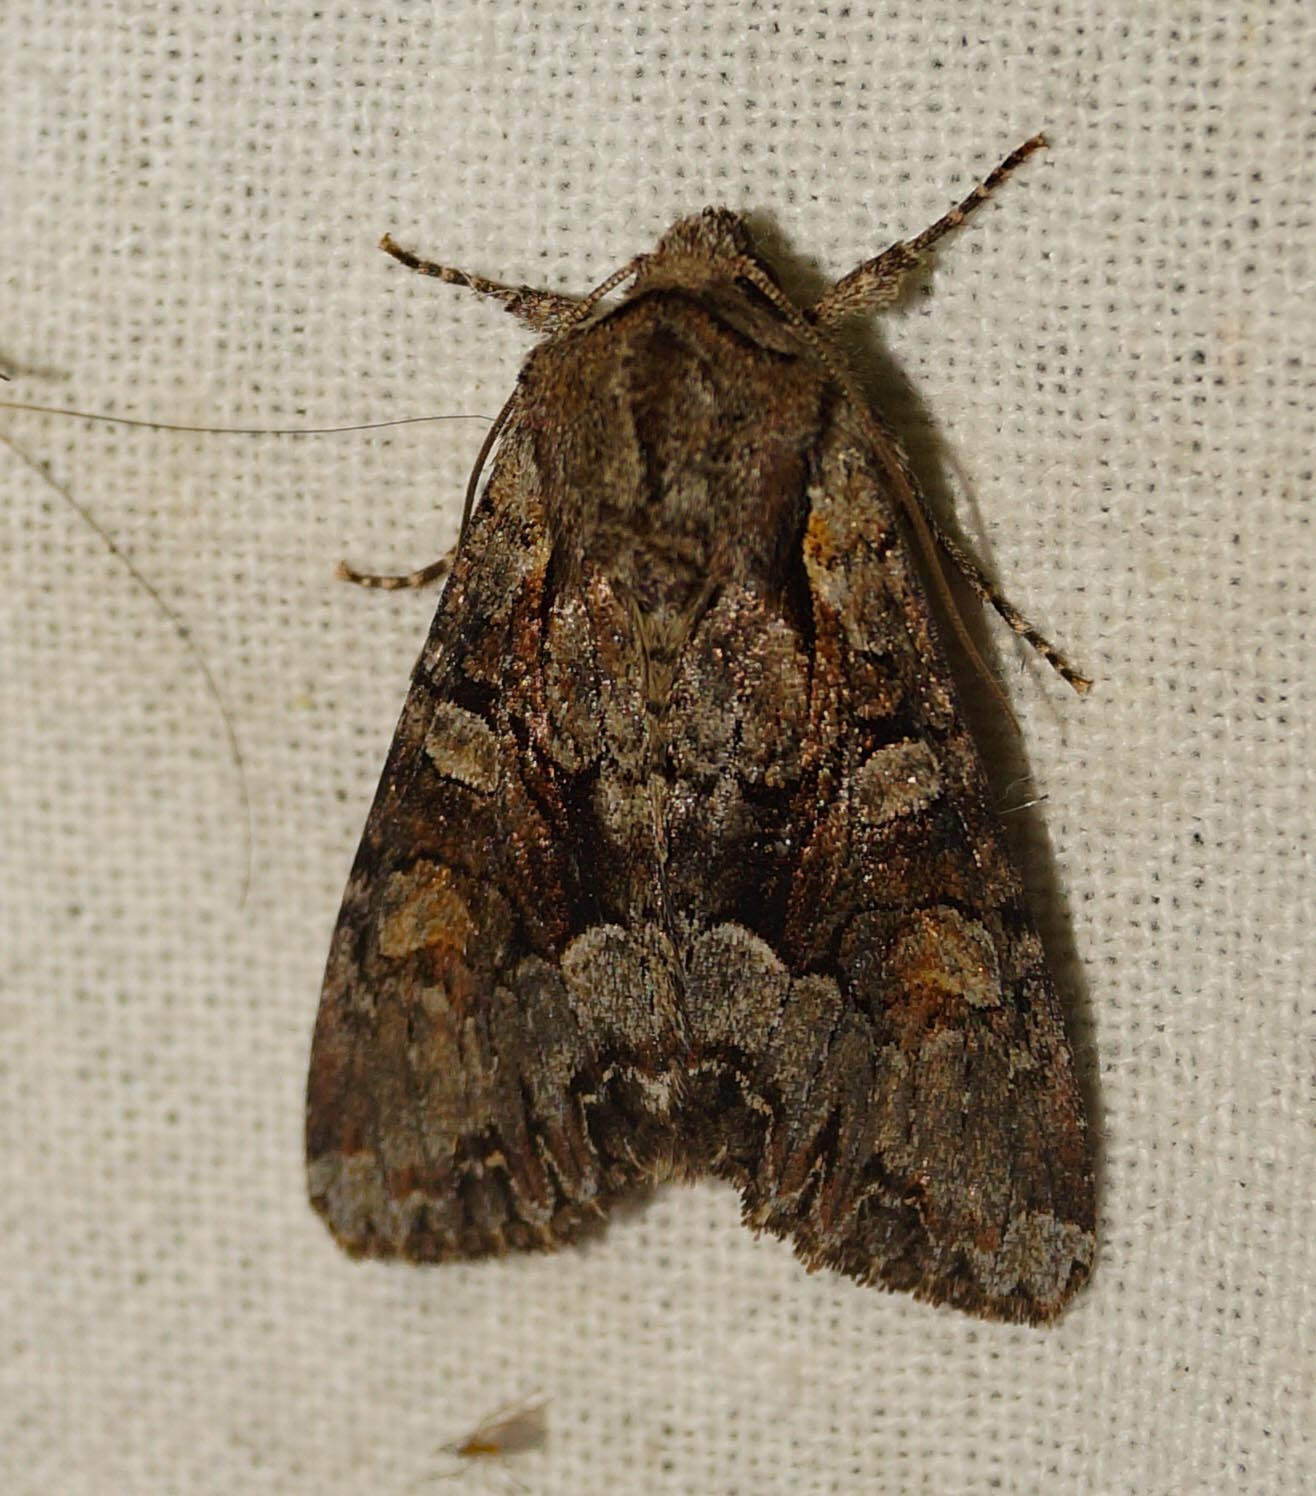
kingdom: Animalia
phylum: Arthropoda
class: Insecta
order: Lepidoptera
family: Noctuidae
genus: Lacanobia
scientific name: Lacanobia w-latinum
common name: Light brocade
